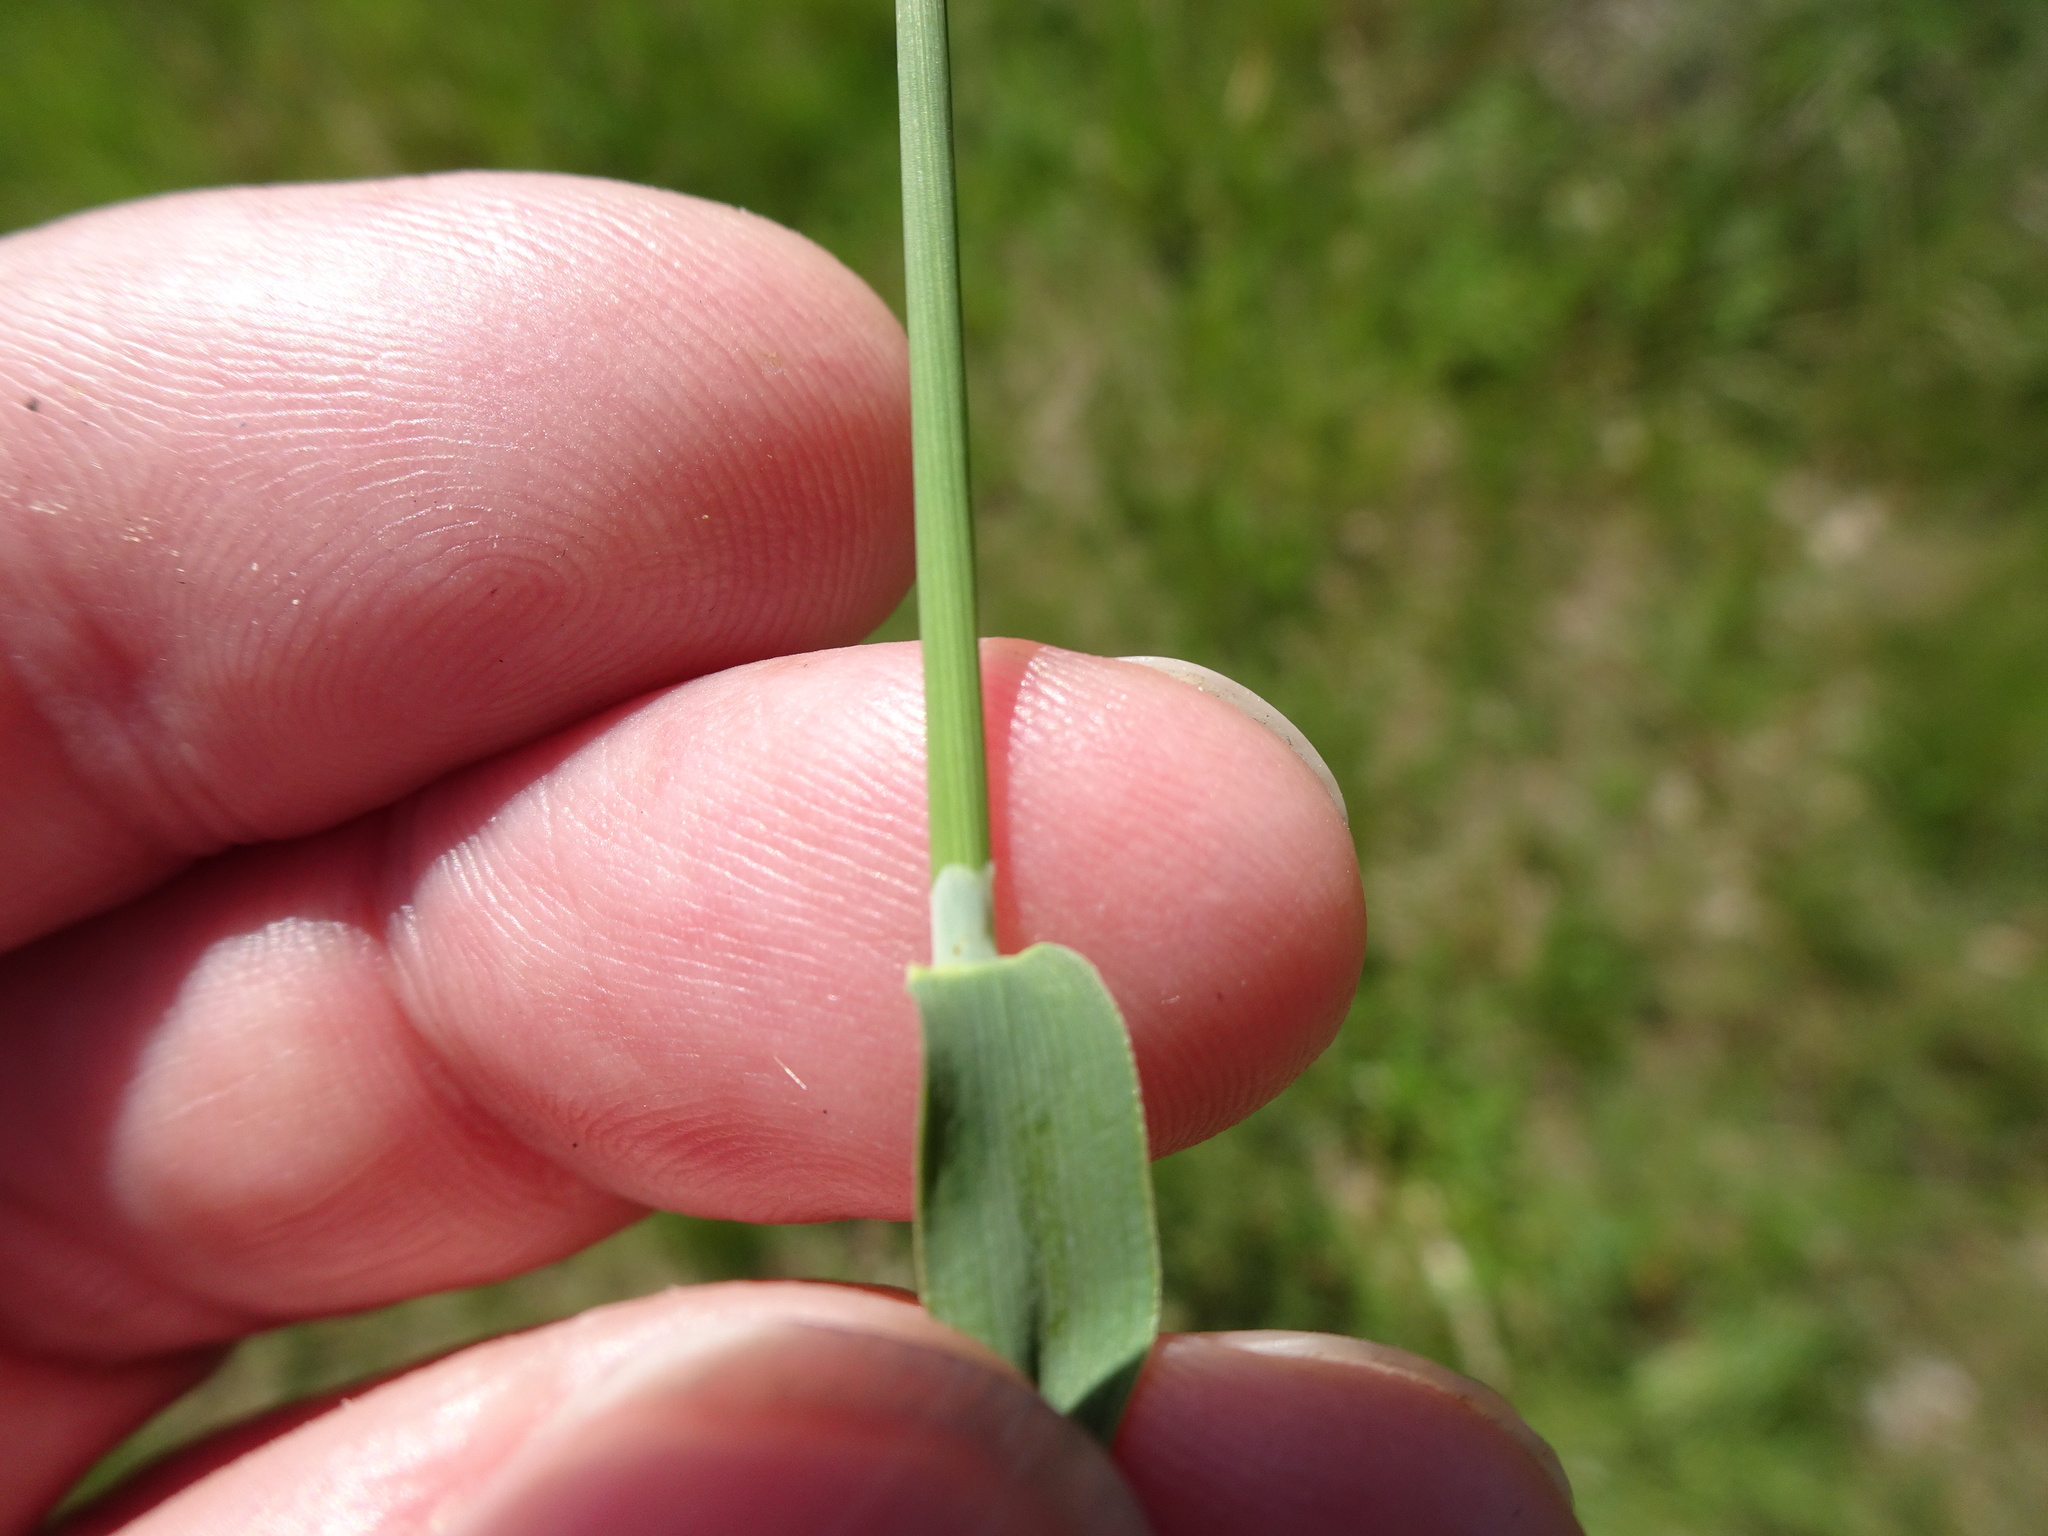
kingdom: Plantae
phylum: Tracheophyta
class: Liliopsida
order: Poales
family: Poaceae
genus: Phleum
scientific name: Phleum bertolonii
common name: Smaller cat's-tail
